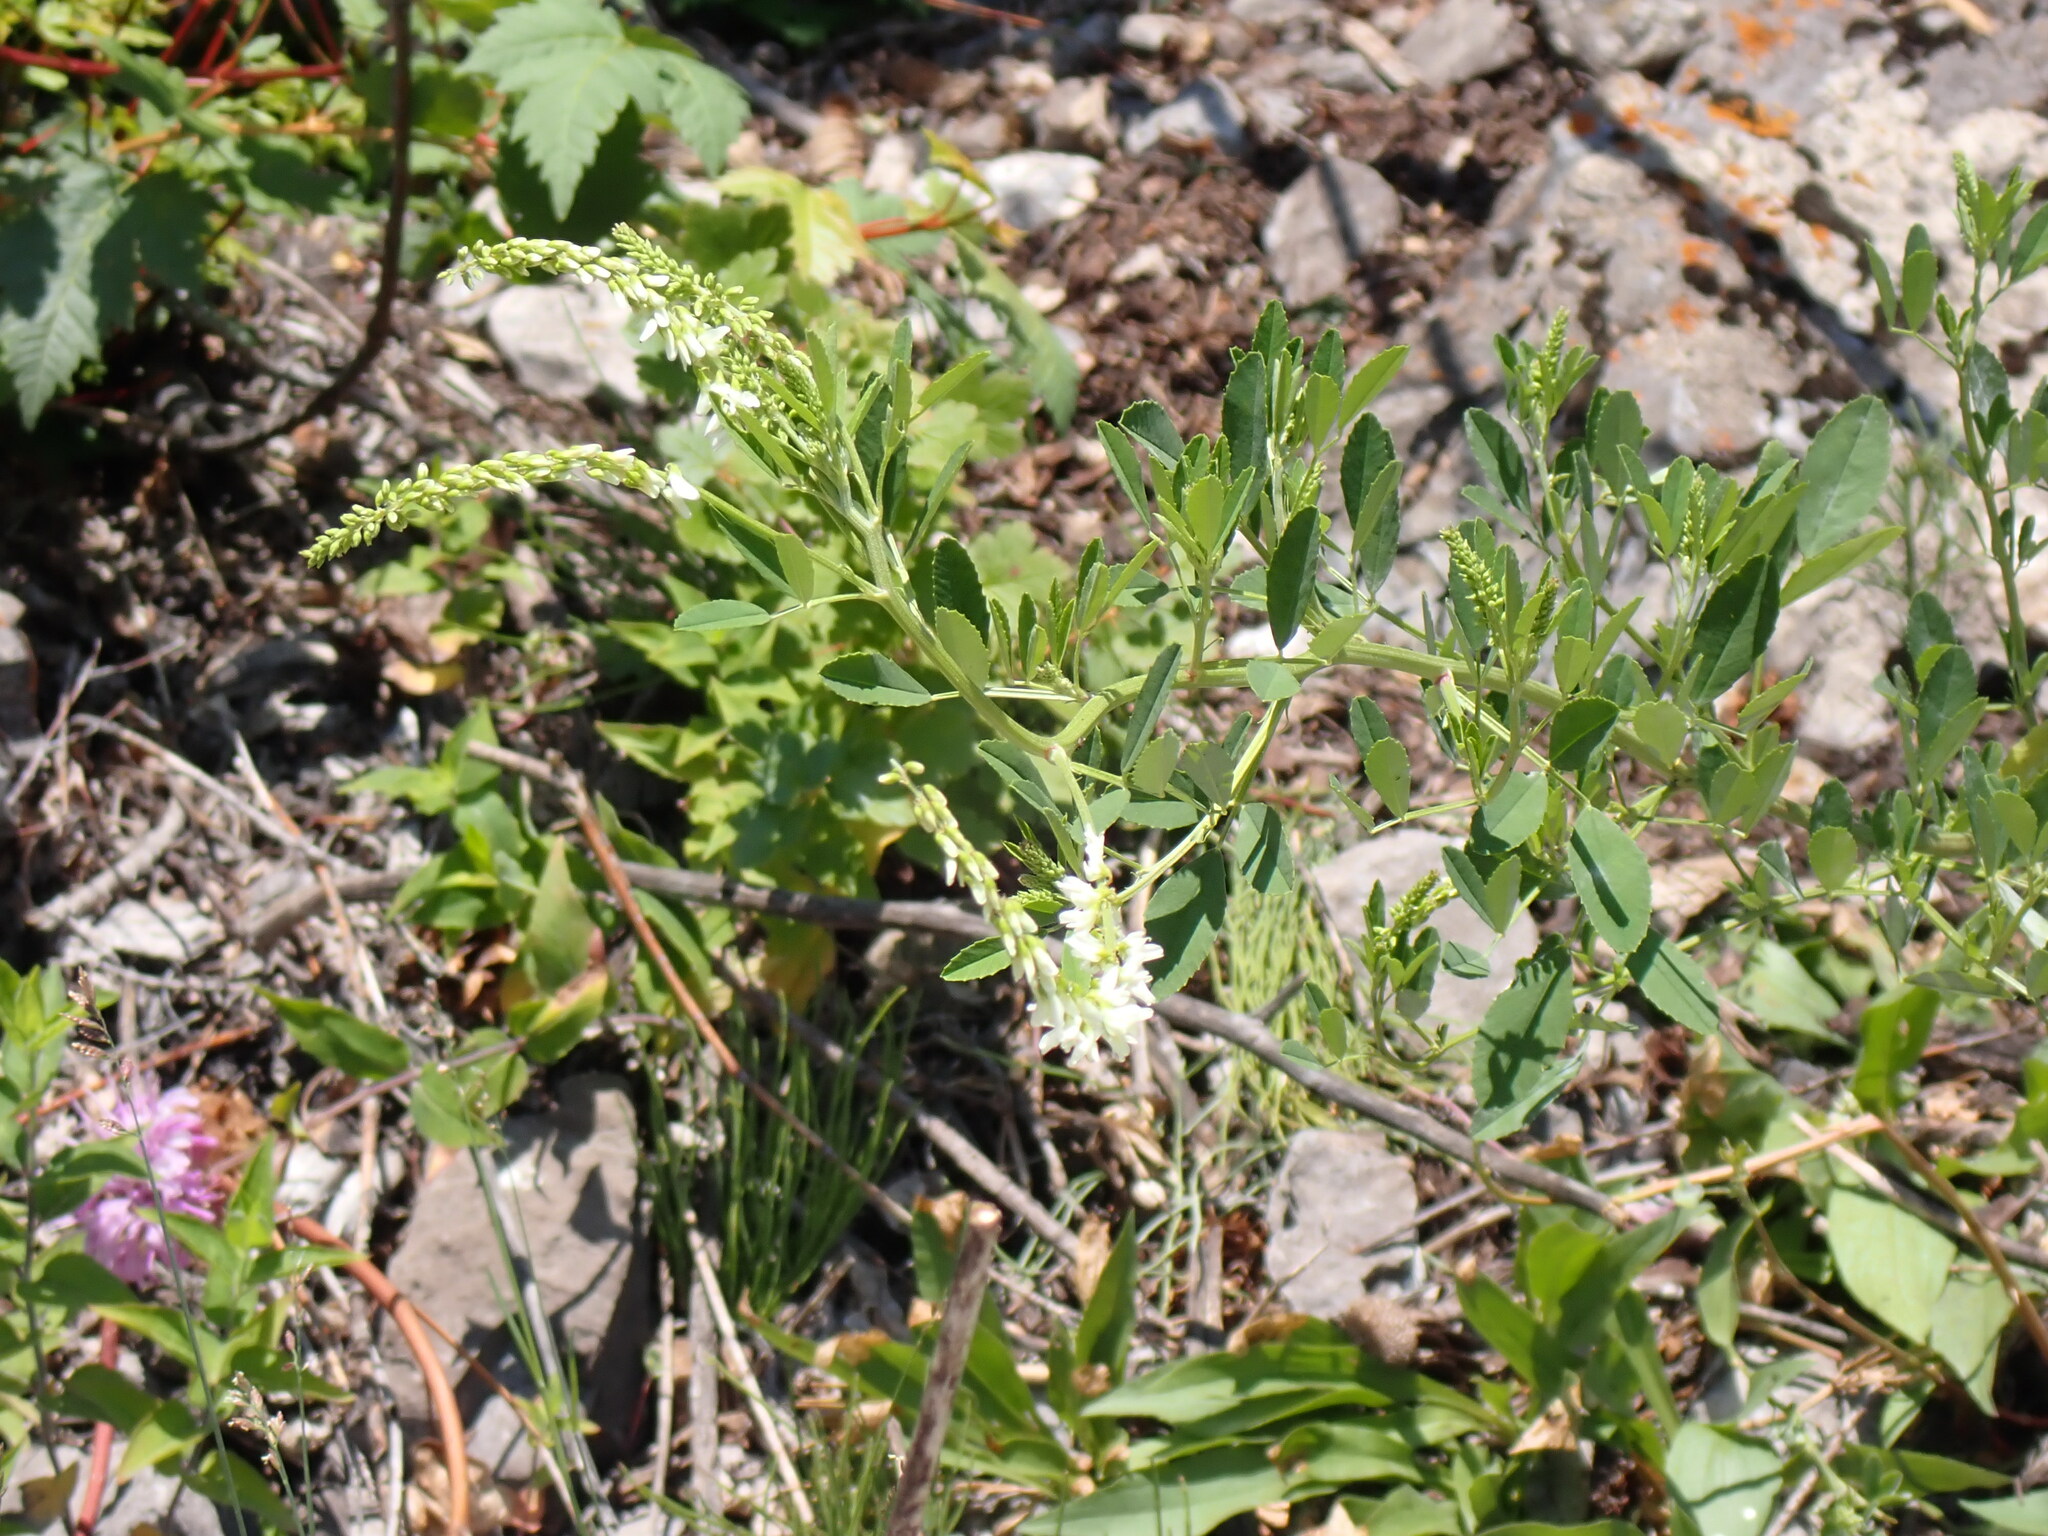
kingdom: Plantae
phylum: Tracheophyta
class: Magnoliopsida
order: Fabales
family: Fabaceae
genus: Melilotus
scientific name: Melilotus albus
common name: White melilot
